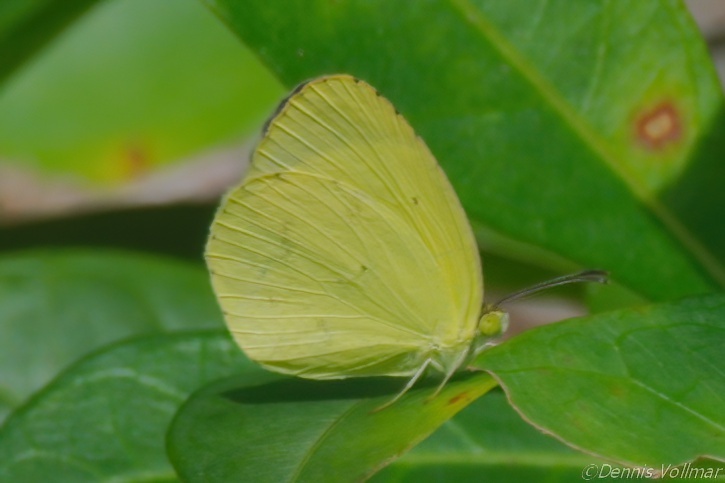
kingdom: Animalia
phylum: Arthropoda
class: Insecta
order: Lepidoptera
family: Pieridae
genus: Pyrisitia
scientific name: Pyrisitia nise
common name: Mimosa yellow
